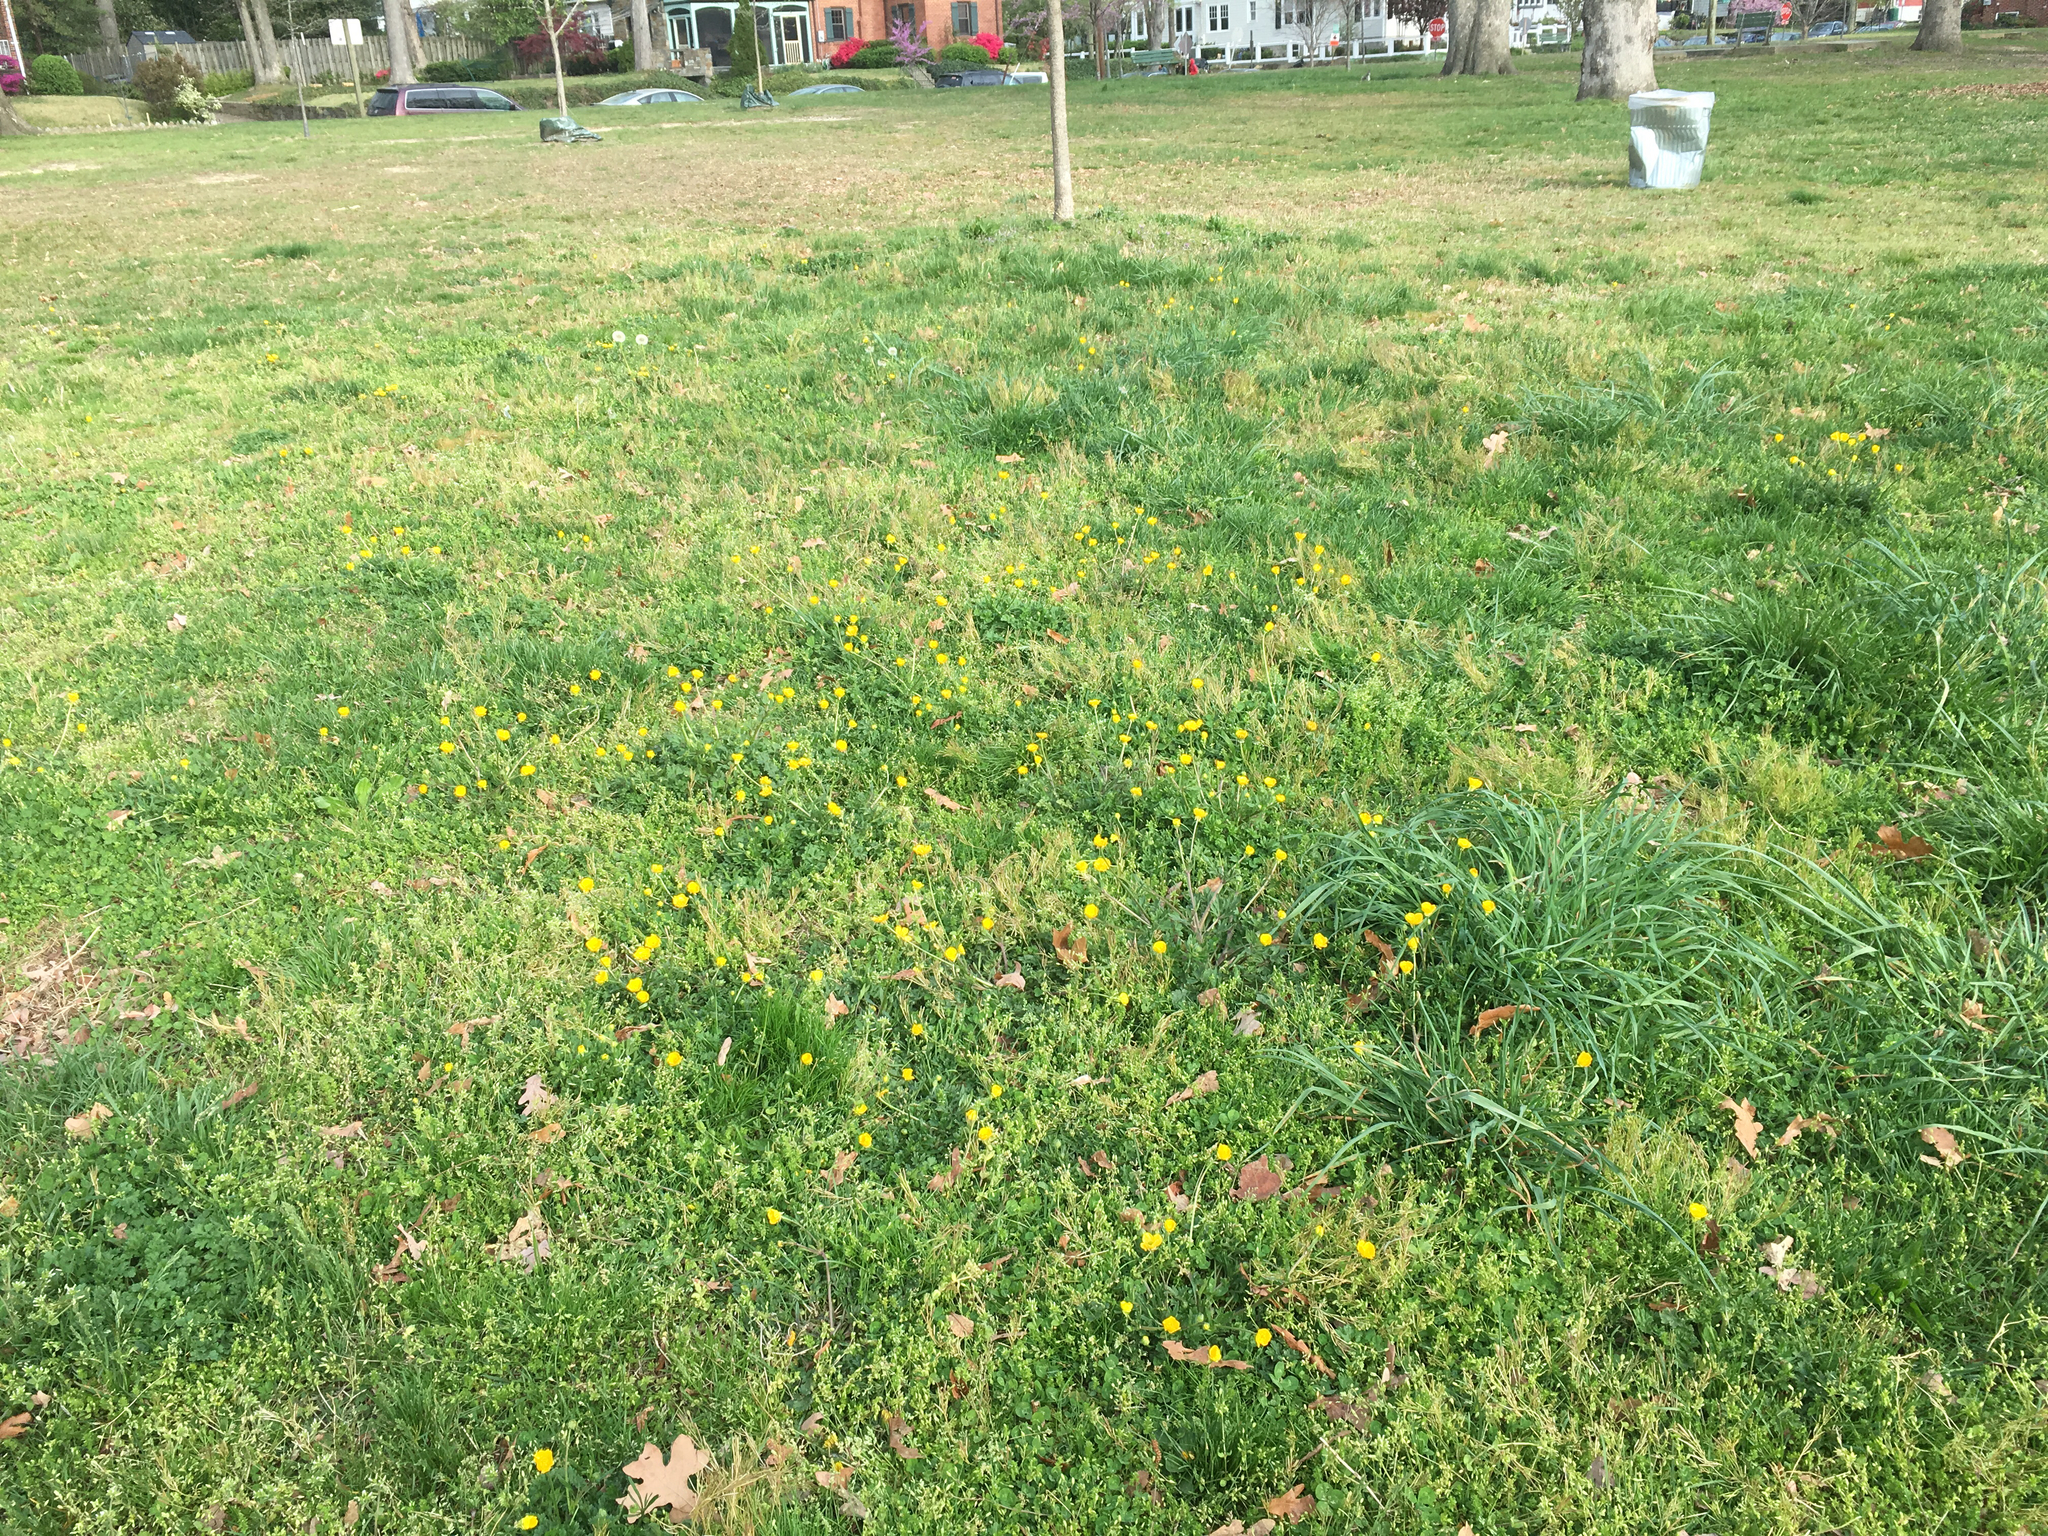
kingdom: Plantae
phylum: Tracheophyta
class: Magnoliopsida
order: Ranunculales
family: Ranunculaceae
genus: Ranunculus
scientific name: Ranunculus bulbosus
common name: Bulbous buttercup
